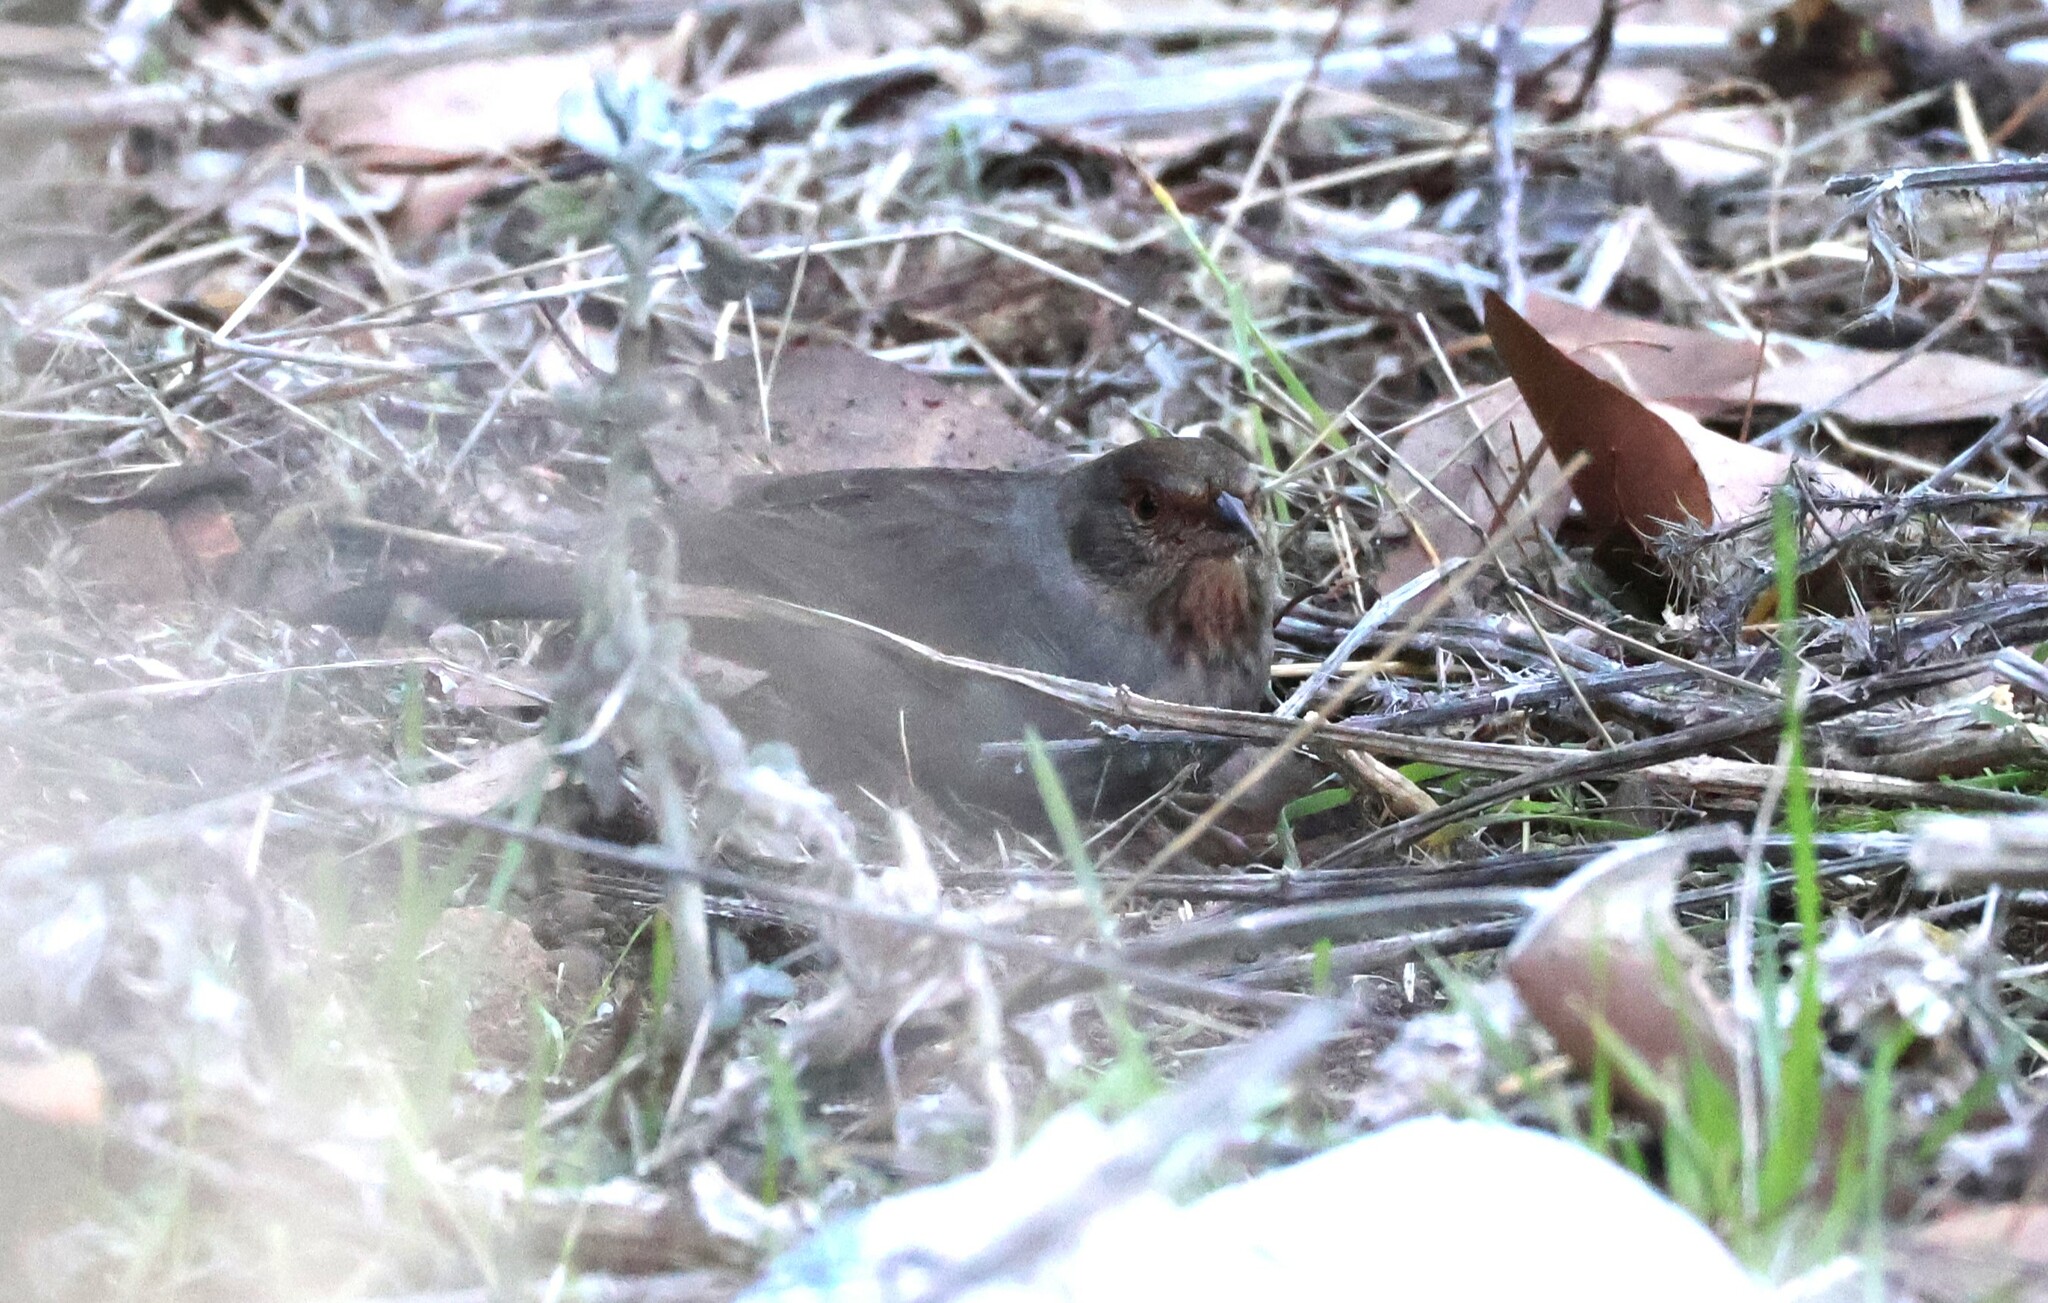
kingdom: Animalia
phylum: Chordata
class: Aves
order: Passeriformes
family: Passerellidae
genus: Melozone
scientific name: Melozone crissalis
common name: California towhee
